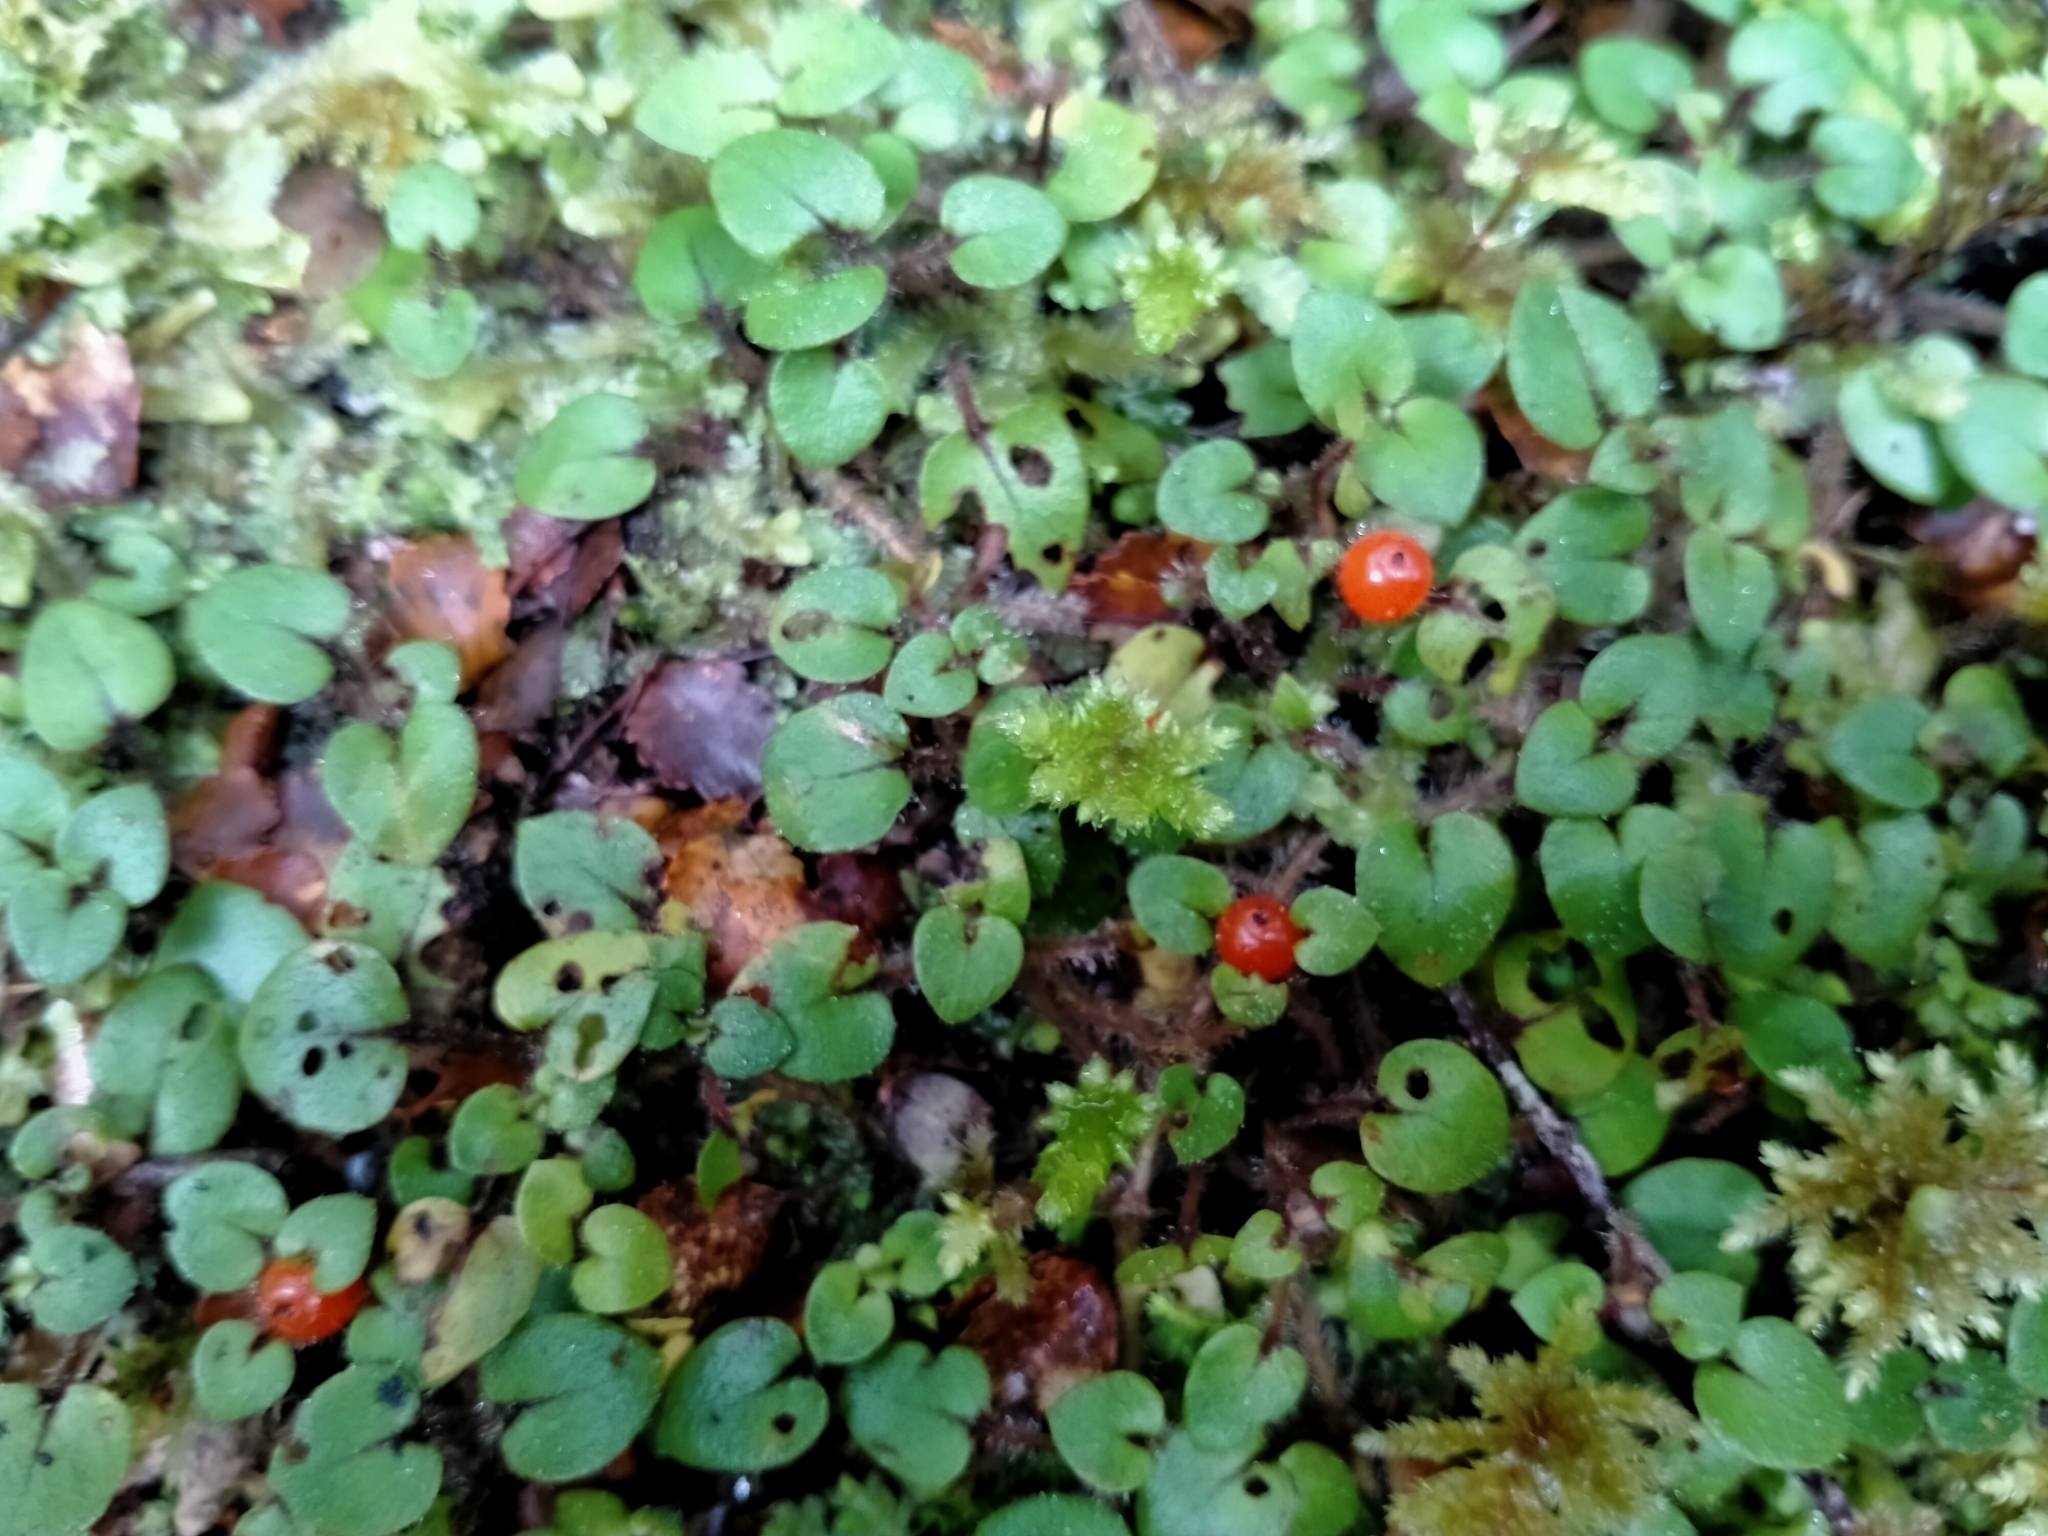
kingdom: Plantae
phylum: Tracheophyta
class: Magnoliopsida
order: Gentianales
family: Rubiaceae
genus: Nertera
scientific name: Nertera villosa
